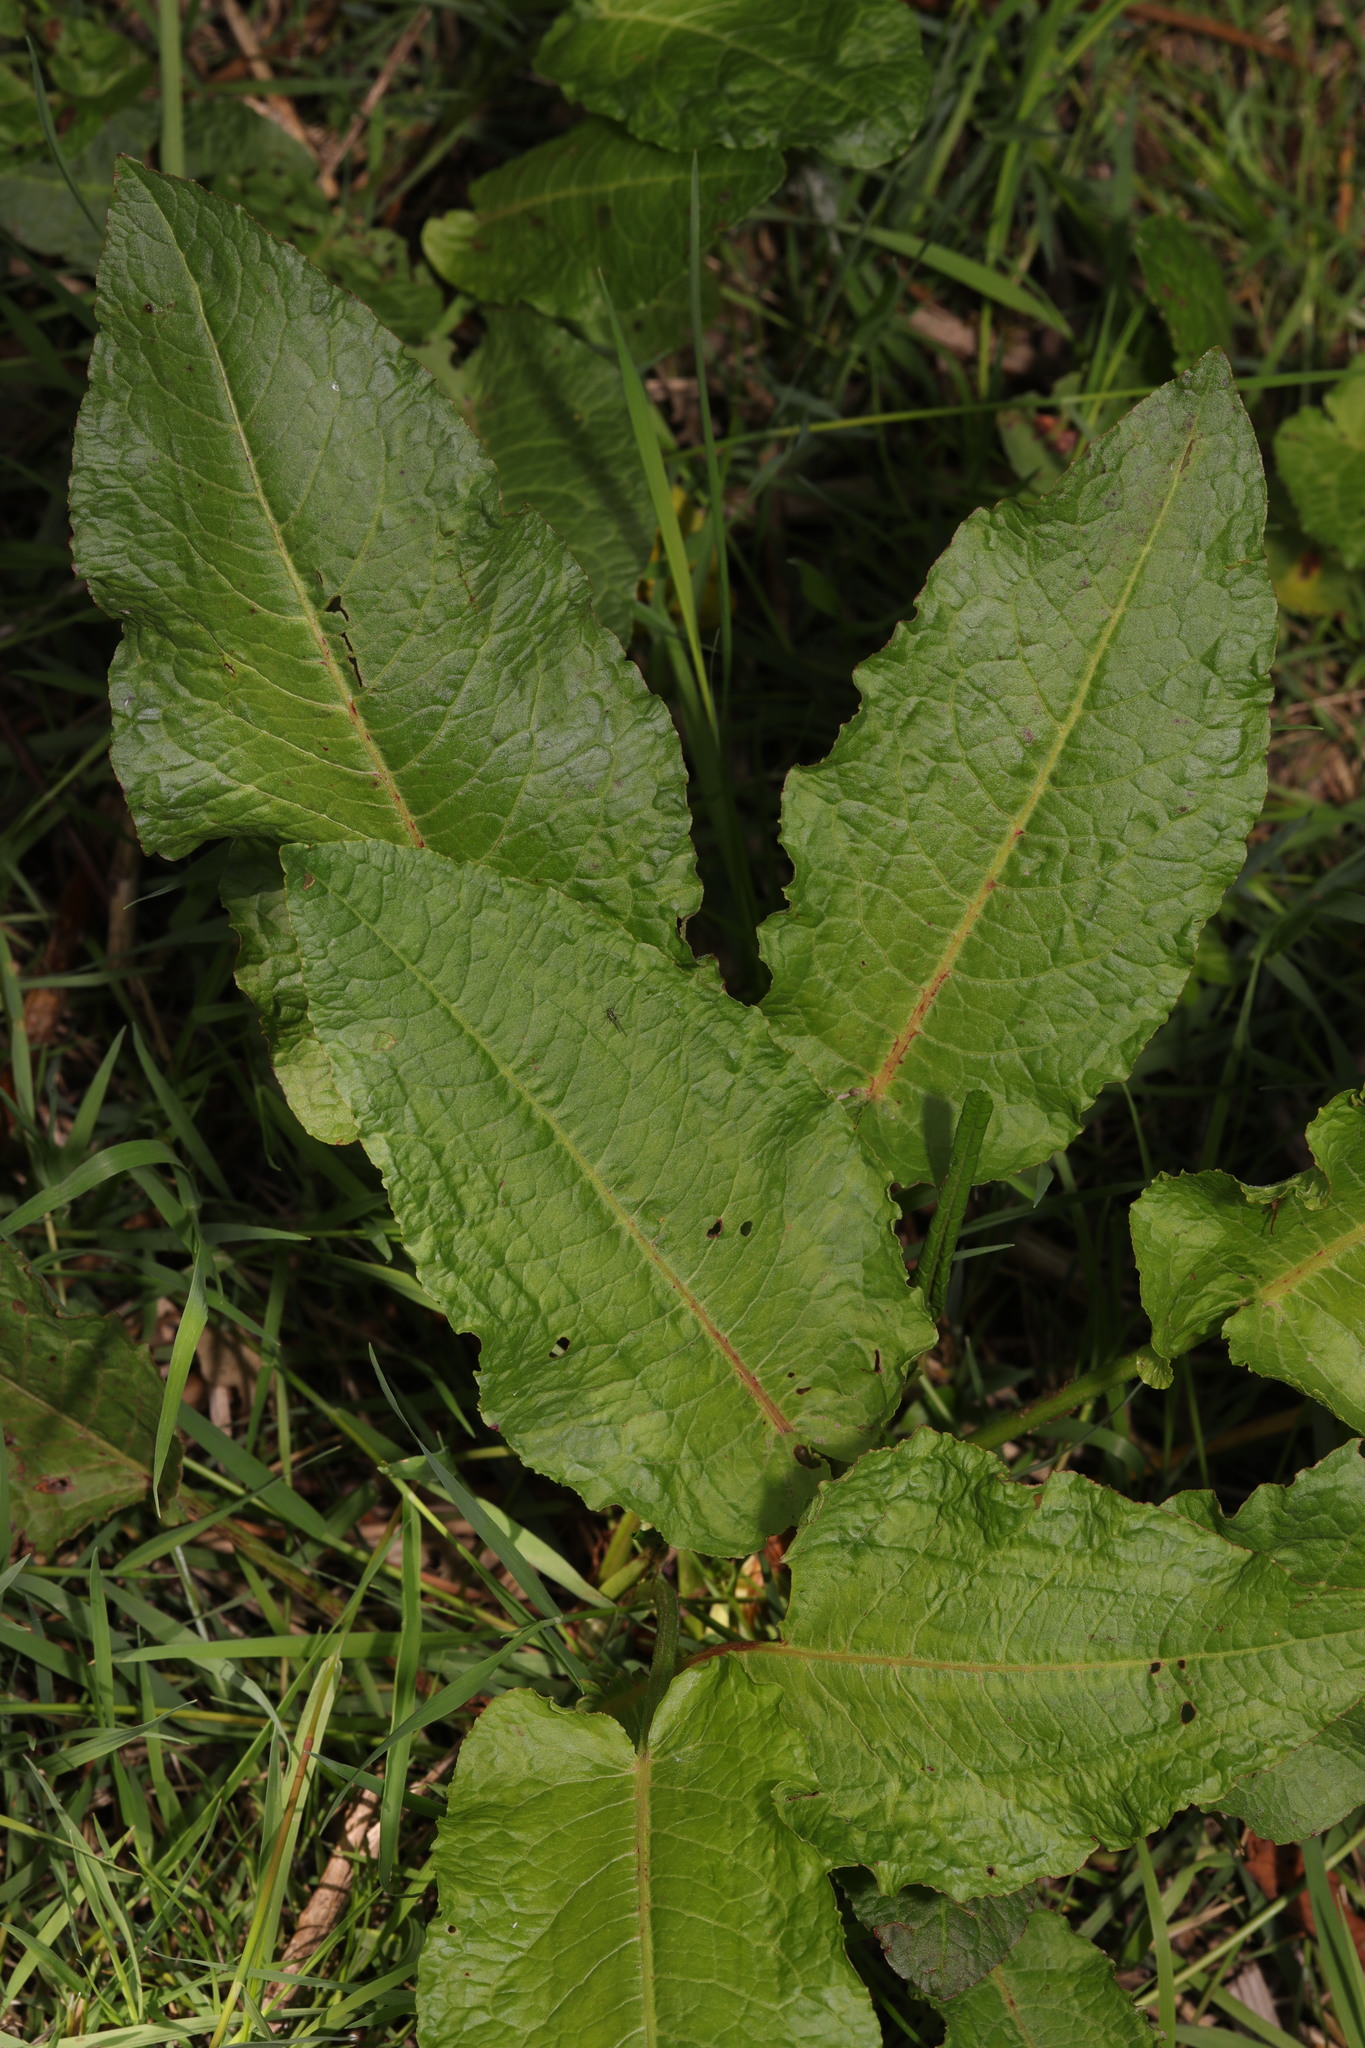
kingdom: Plantae
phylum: Tracheophyta
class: Magnoliopsida
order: Caryophyllales
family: Polygonaceae
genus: Rumex
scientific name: Rumex obtusifolius
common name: Bitter dock
